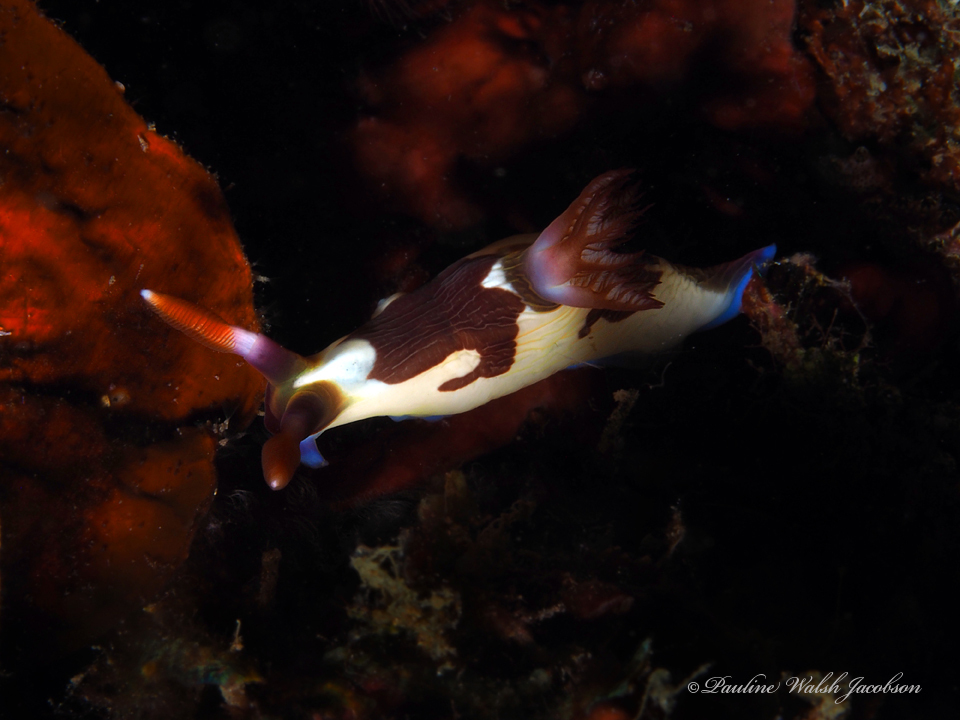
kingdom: Animalia
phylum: Mollusca
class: Gastropoda
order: Nudibranchia
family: Polyceridae
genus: Nembrotha
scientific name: Nembrotha chamberlaini
